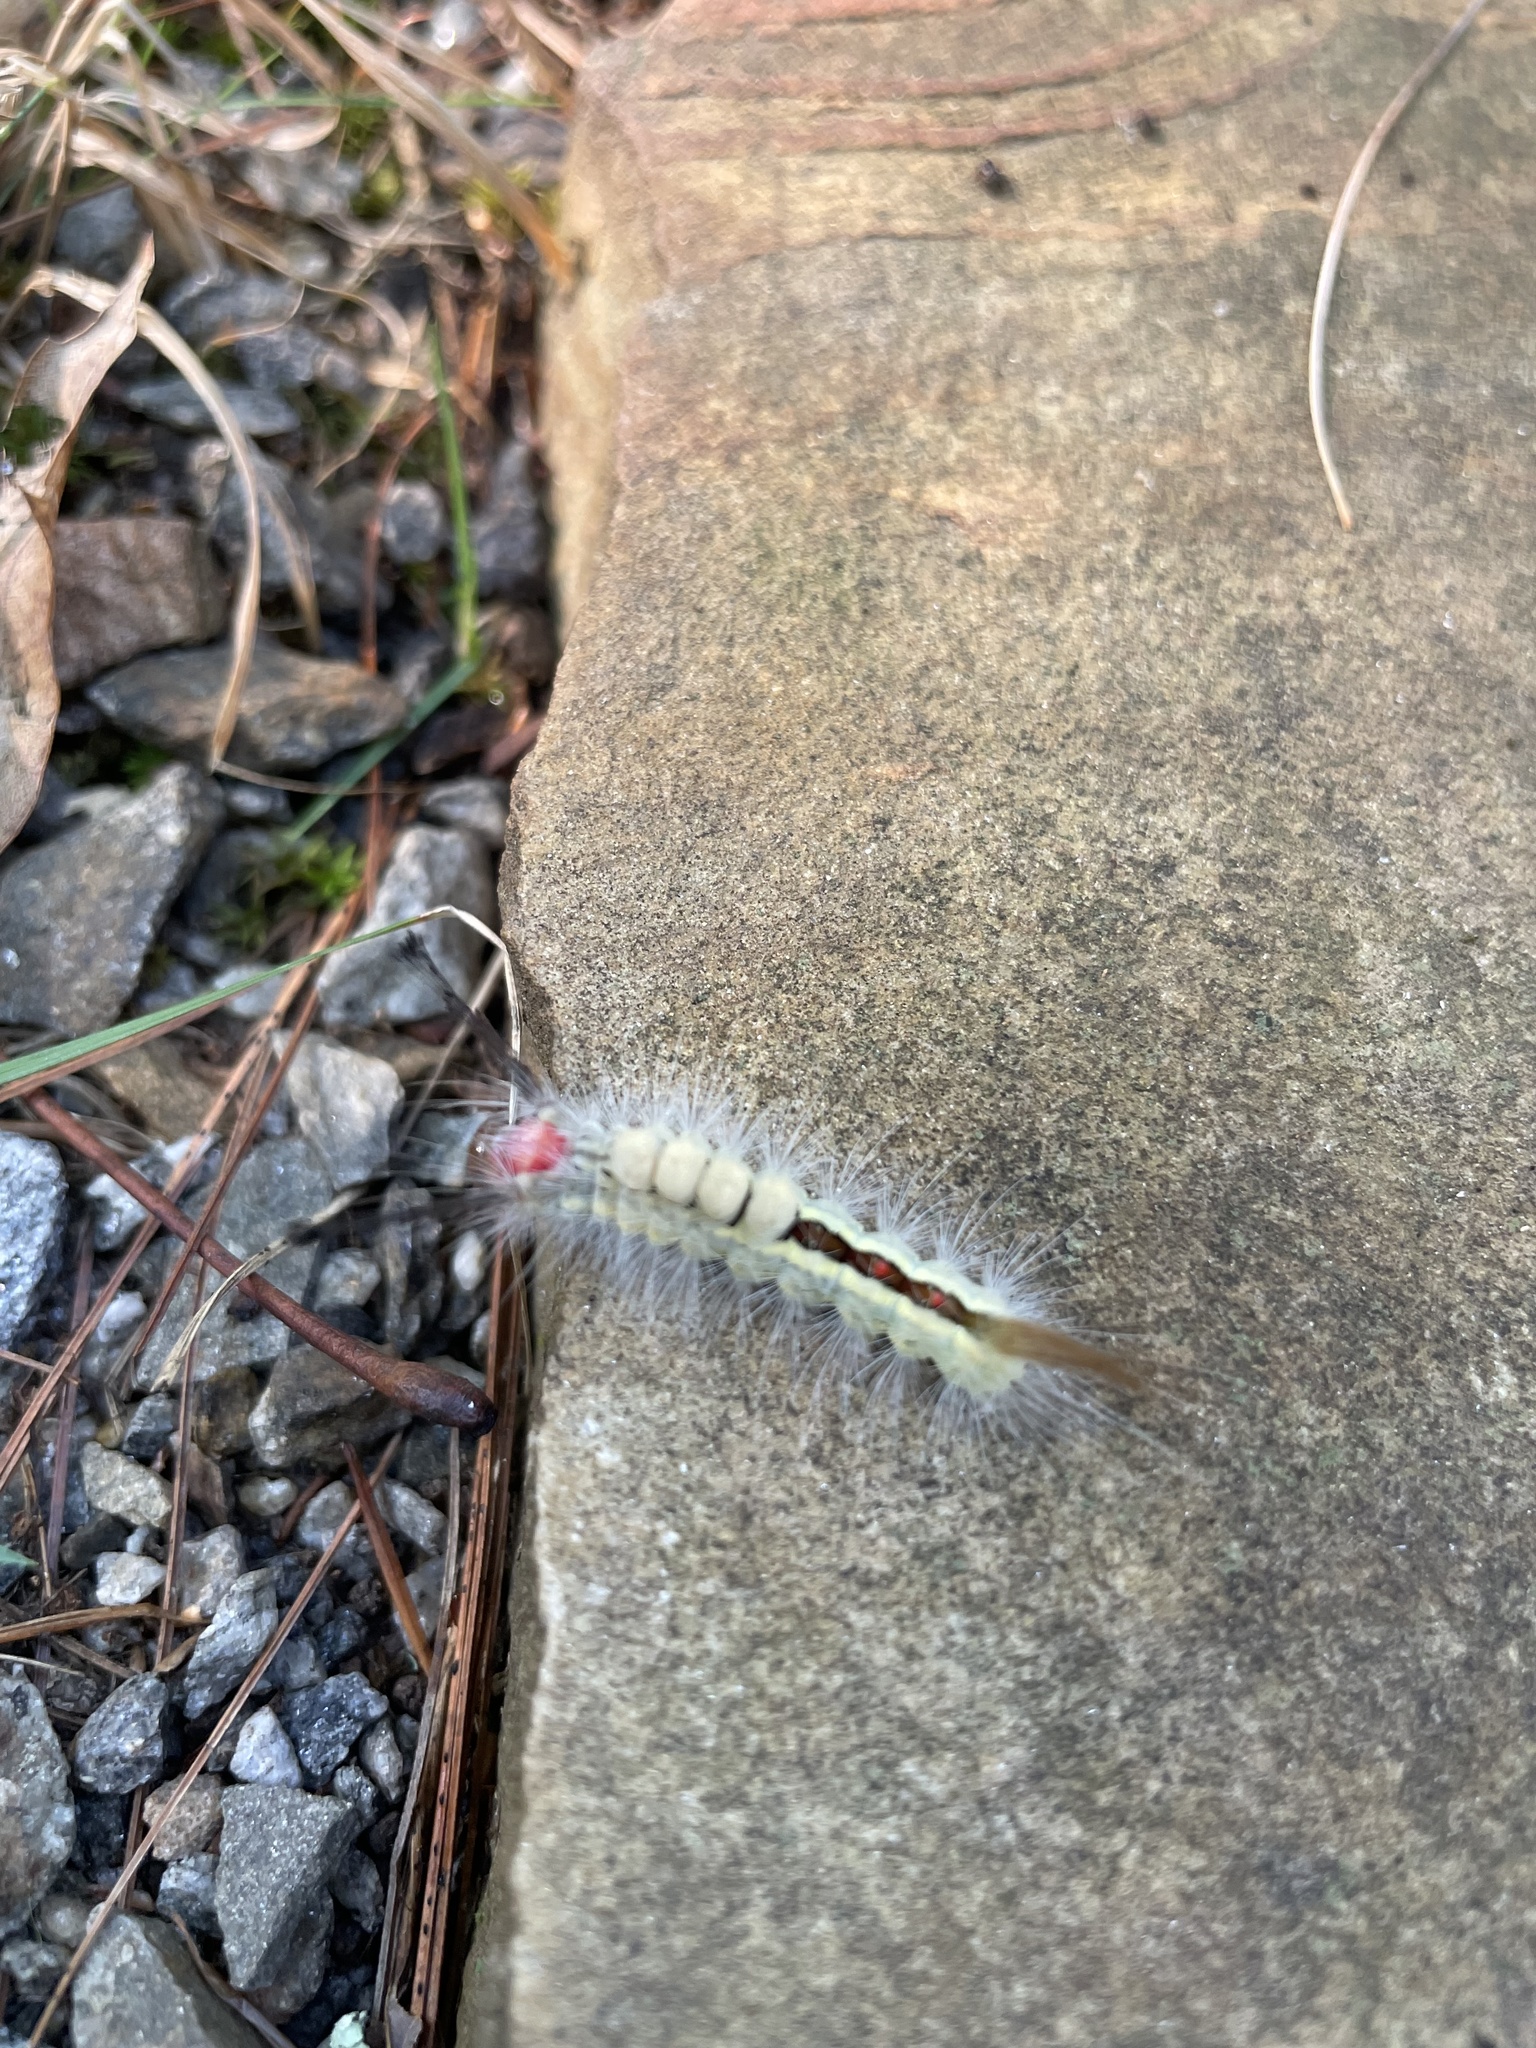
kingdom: Animalia
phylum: Arthropoda
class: Insecta
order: Lepidoptera
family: Erebidae
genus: Orgyia
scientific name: Orgyia leucostigma
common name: White-marked tussock moth
